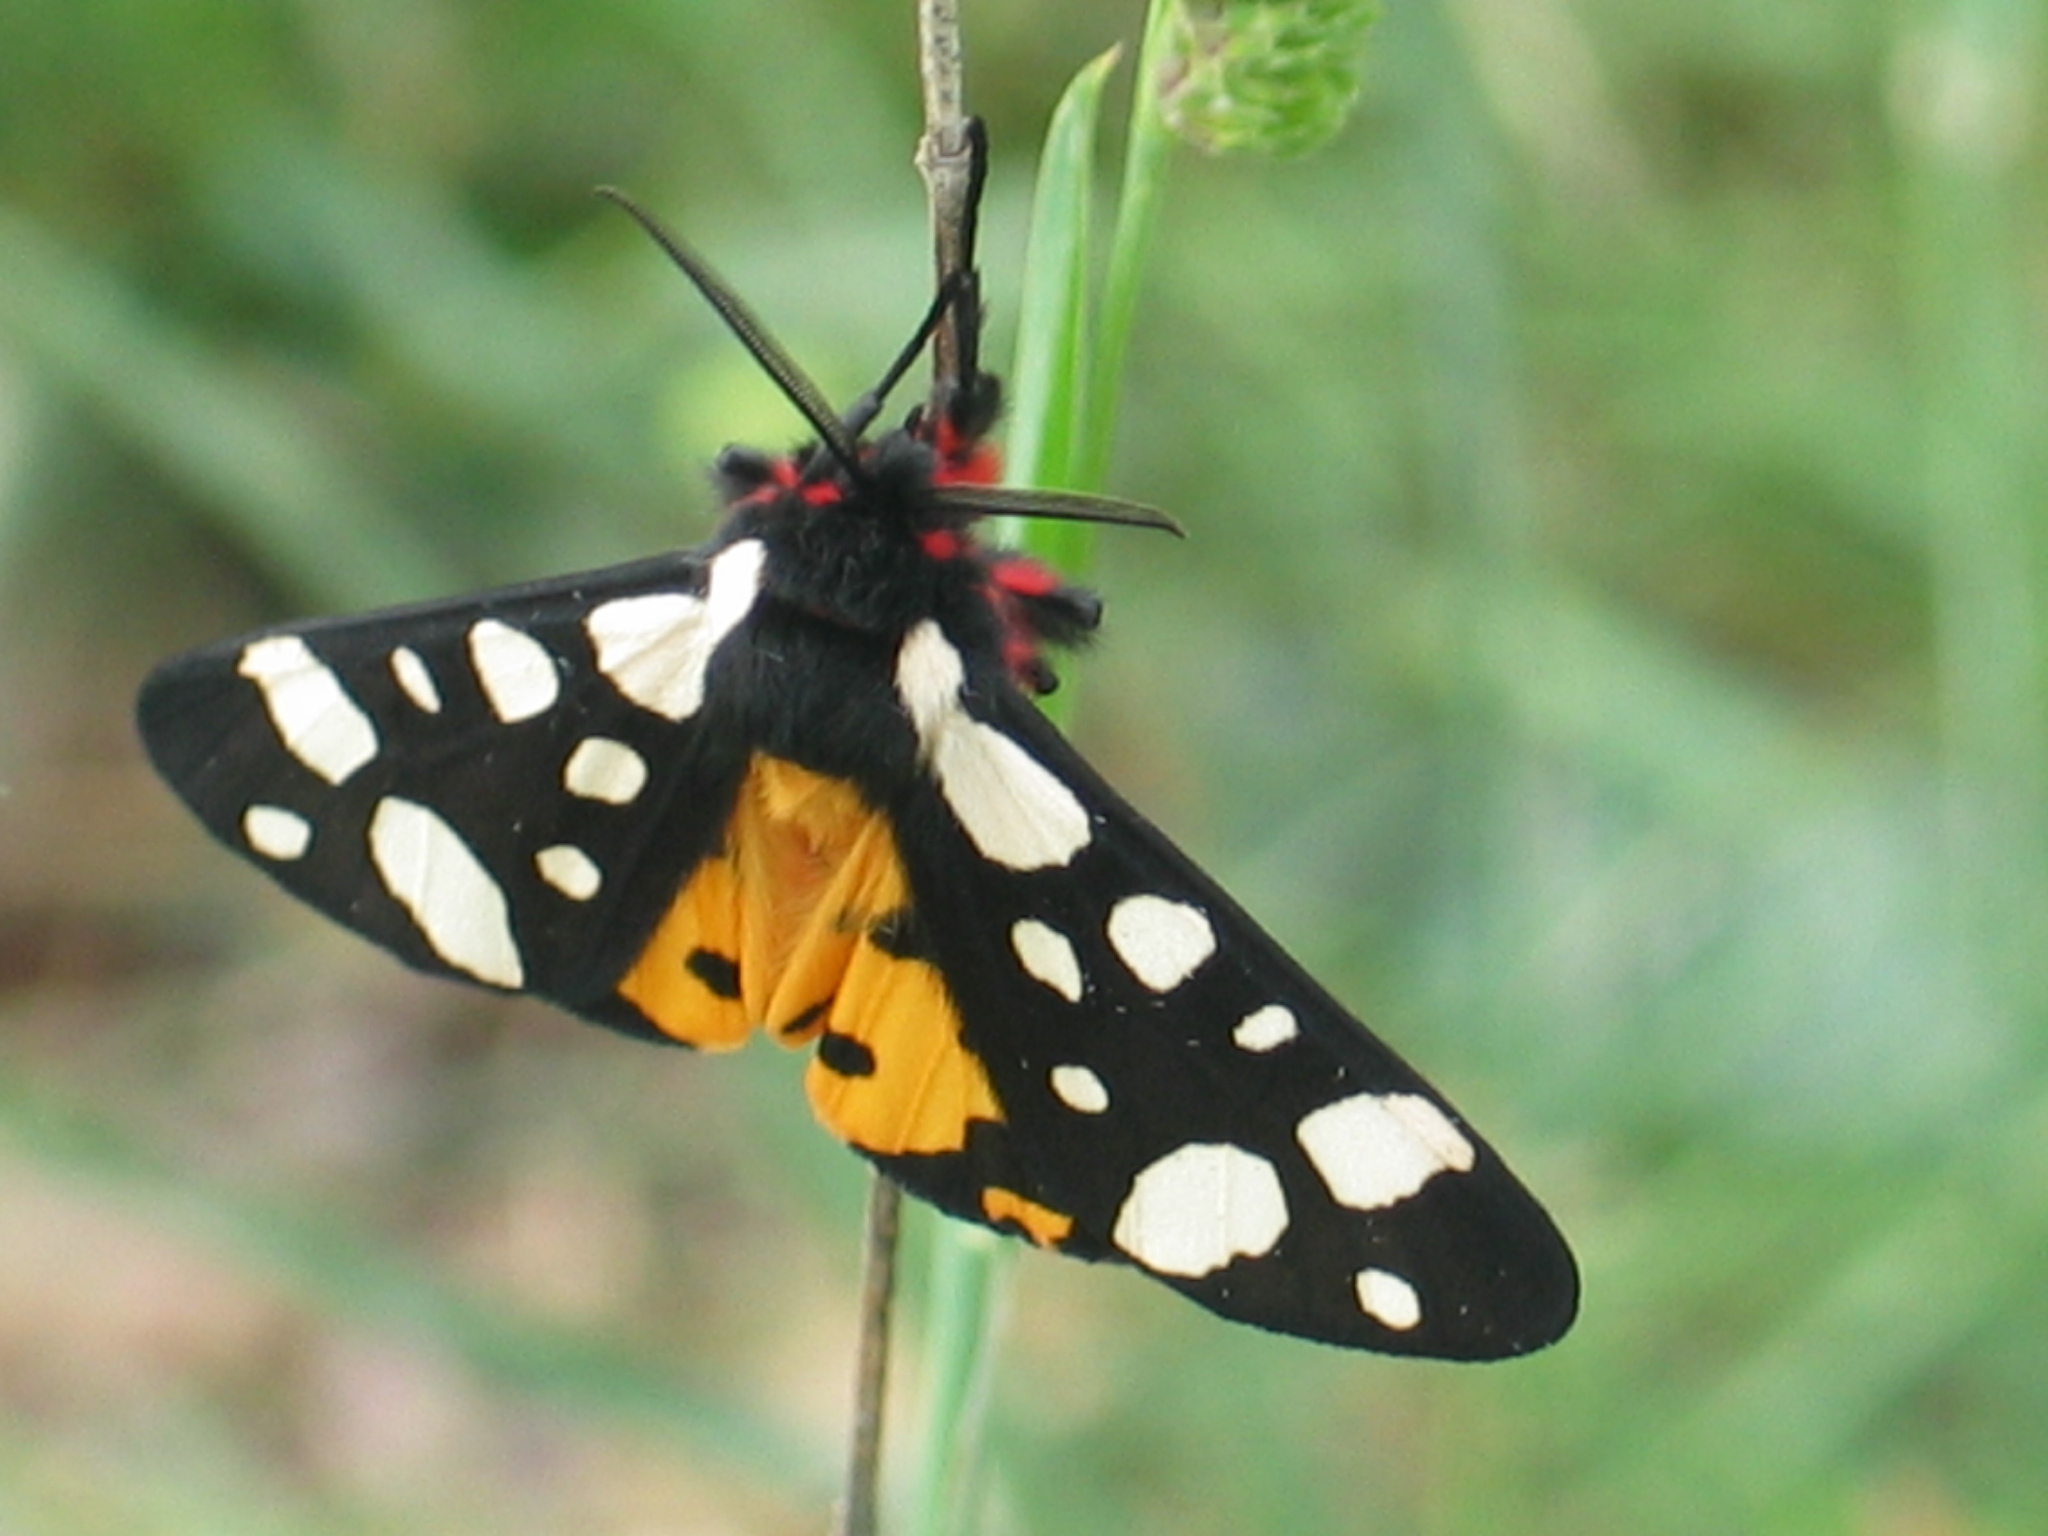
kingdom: Animalia
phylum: Arthropoda
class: Insecta
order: Lepidoptera
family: Erebidae
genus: Epicallia
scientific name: Epicallia villica
